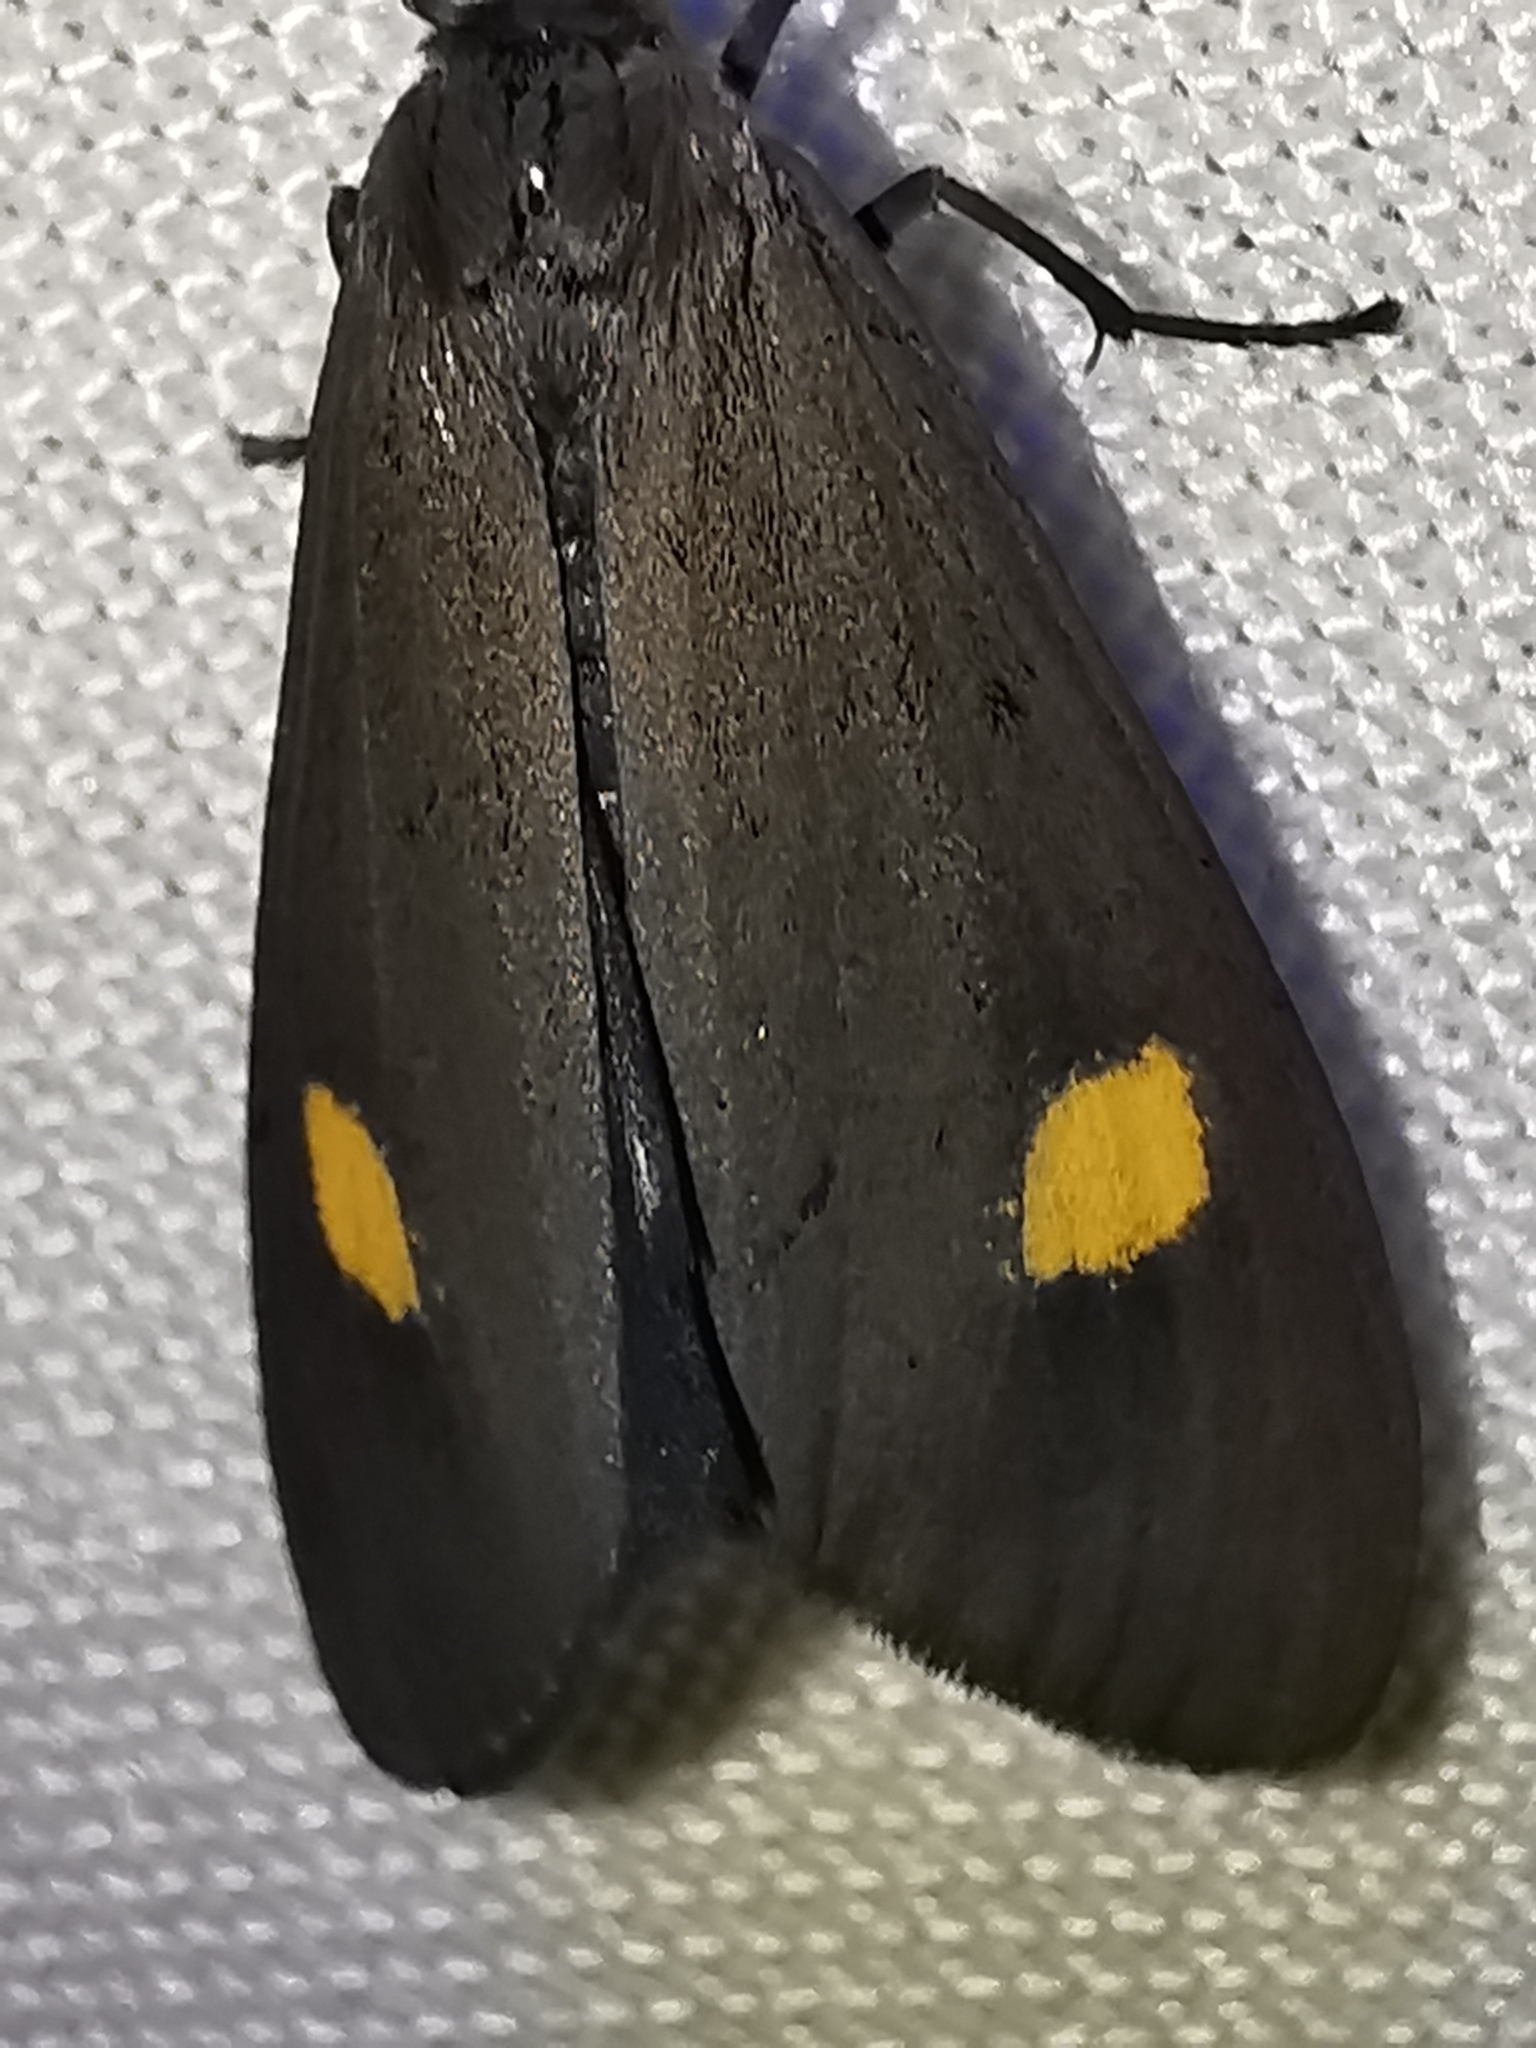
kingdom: Animalia
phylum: Arthropoda
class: Insecta
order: Lepidoptera
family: Notodontidae
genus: Phryganidia
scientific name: Phryganidia naxa
